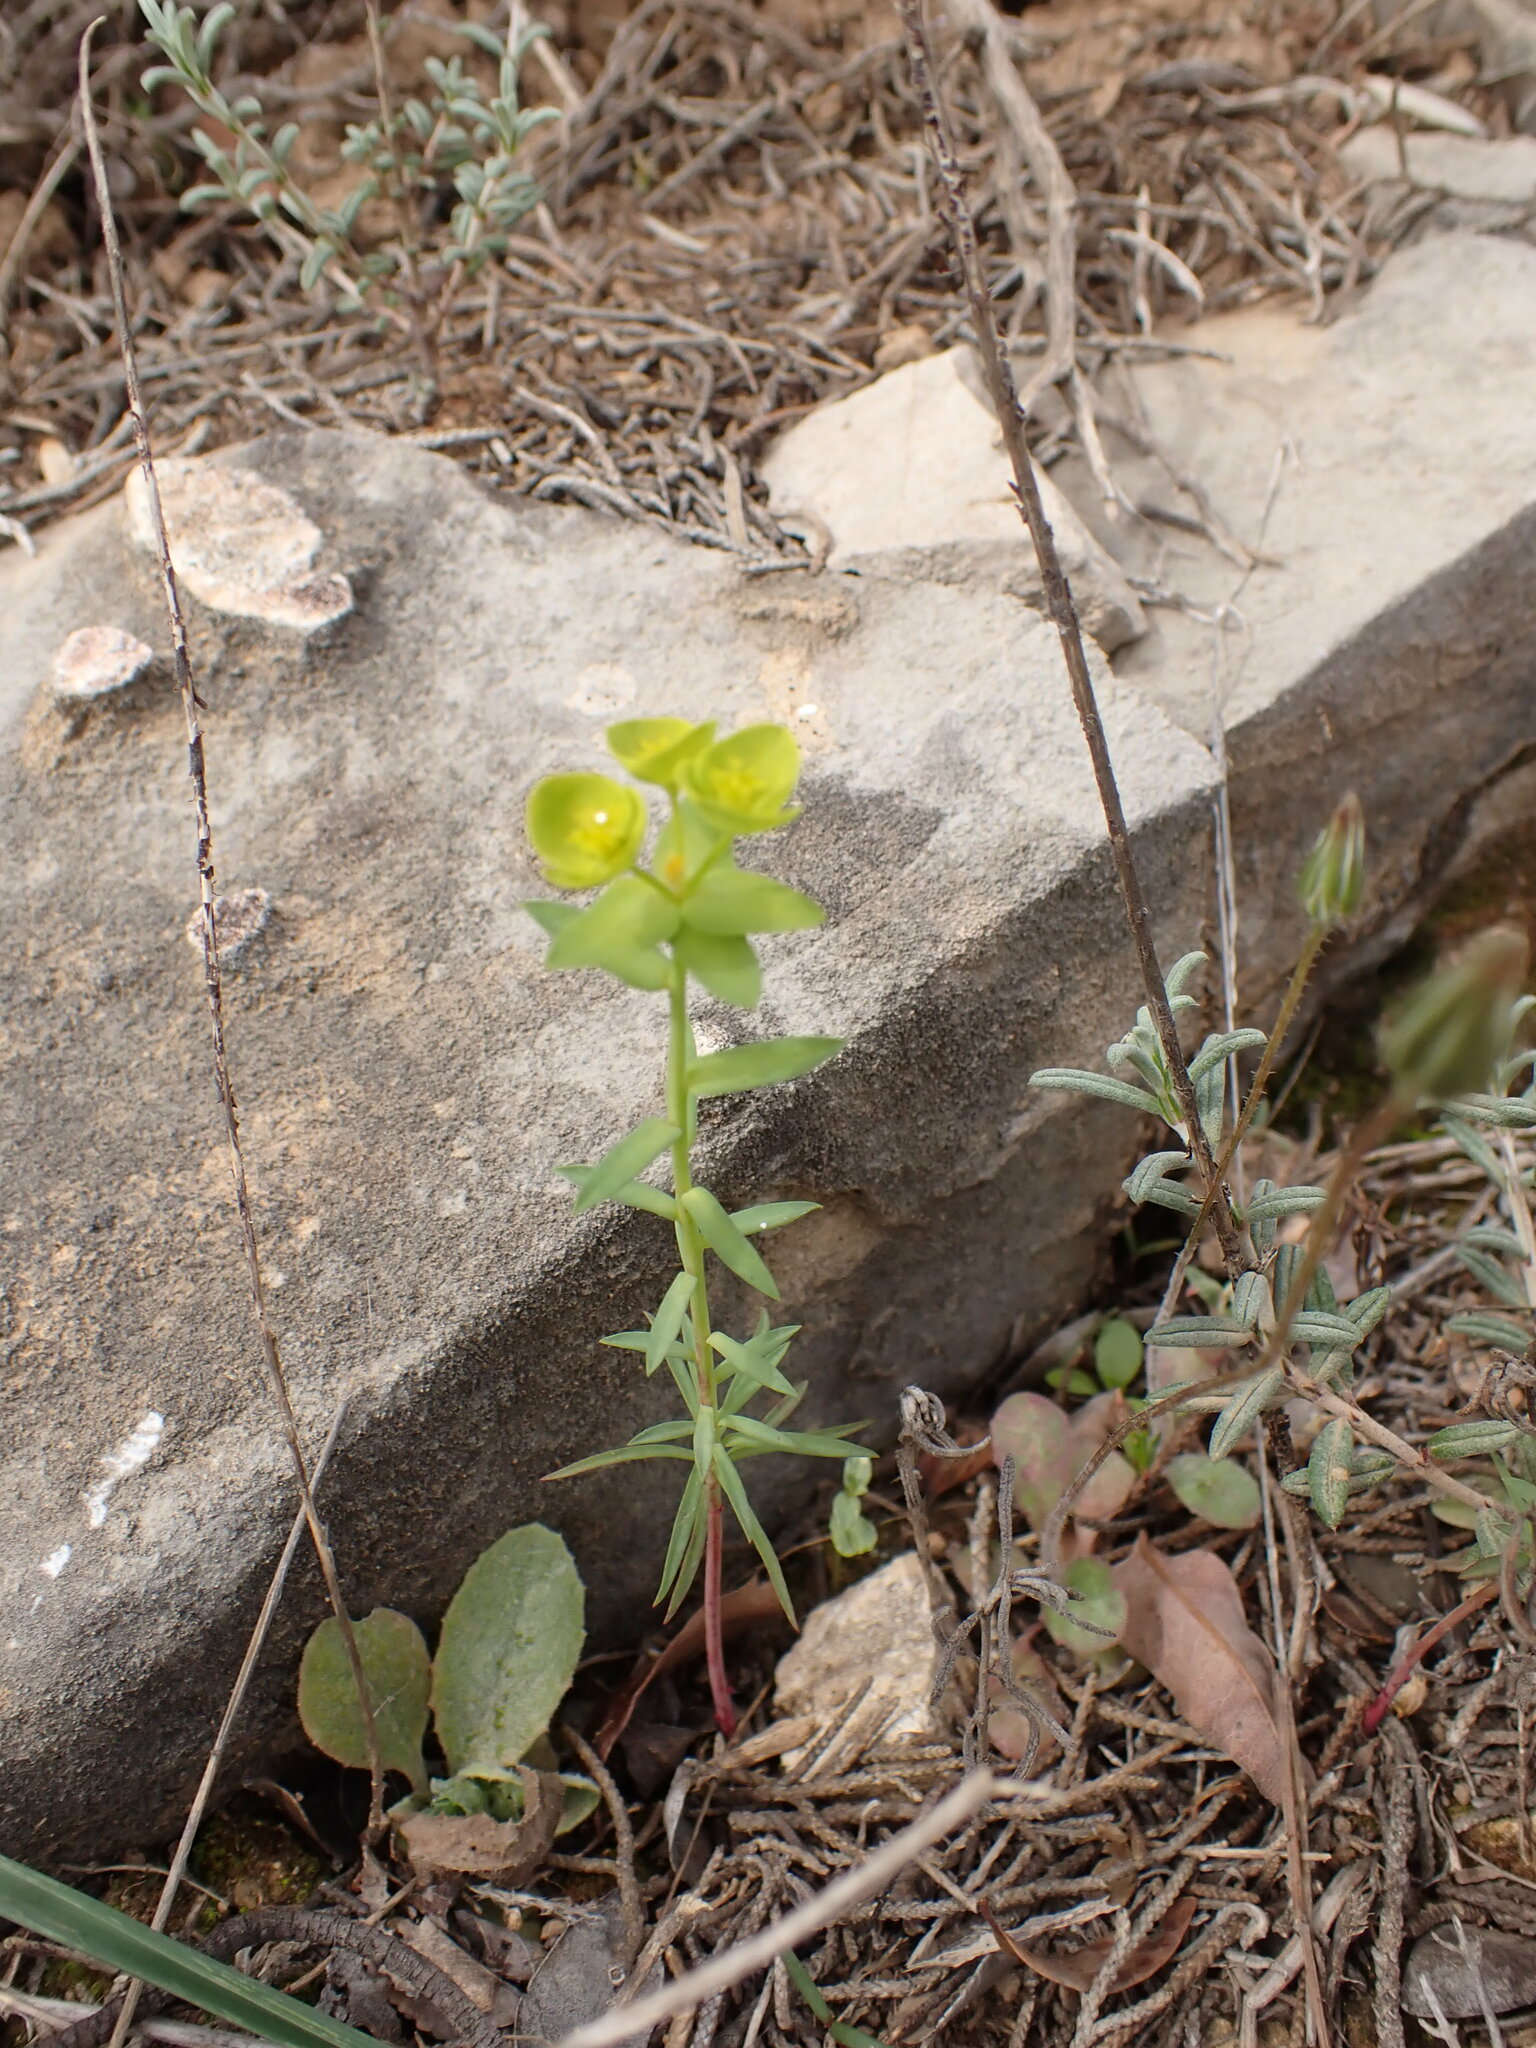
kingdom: Plantae
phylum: Tracheophyta
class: Magnoliopsida
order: Malpighiales
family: Euphorbiaceae
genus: Euphorbia
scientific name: Euphorbia segetalis
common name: Corn spurge
